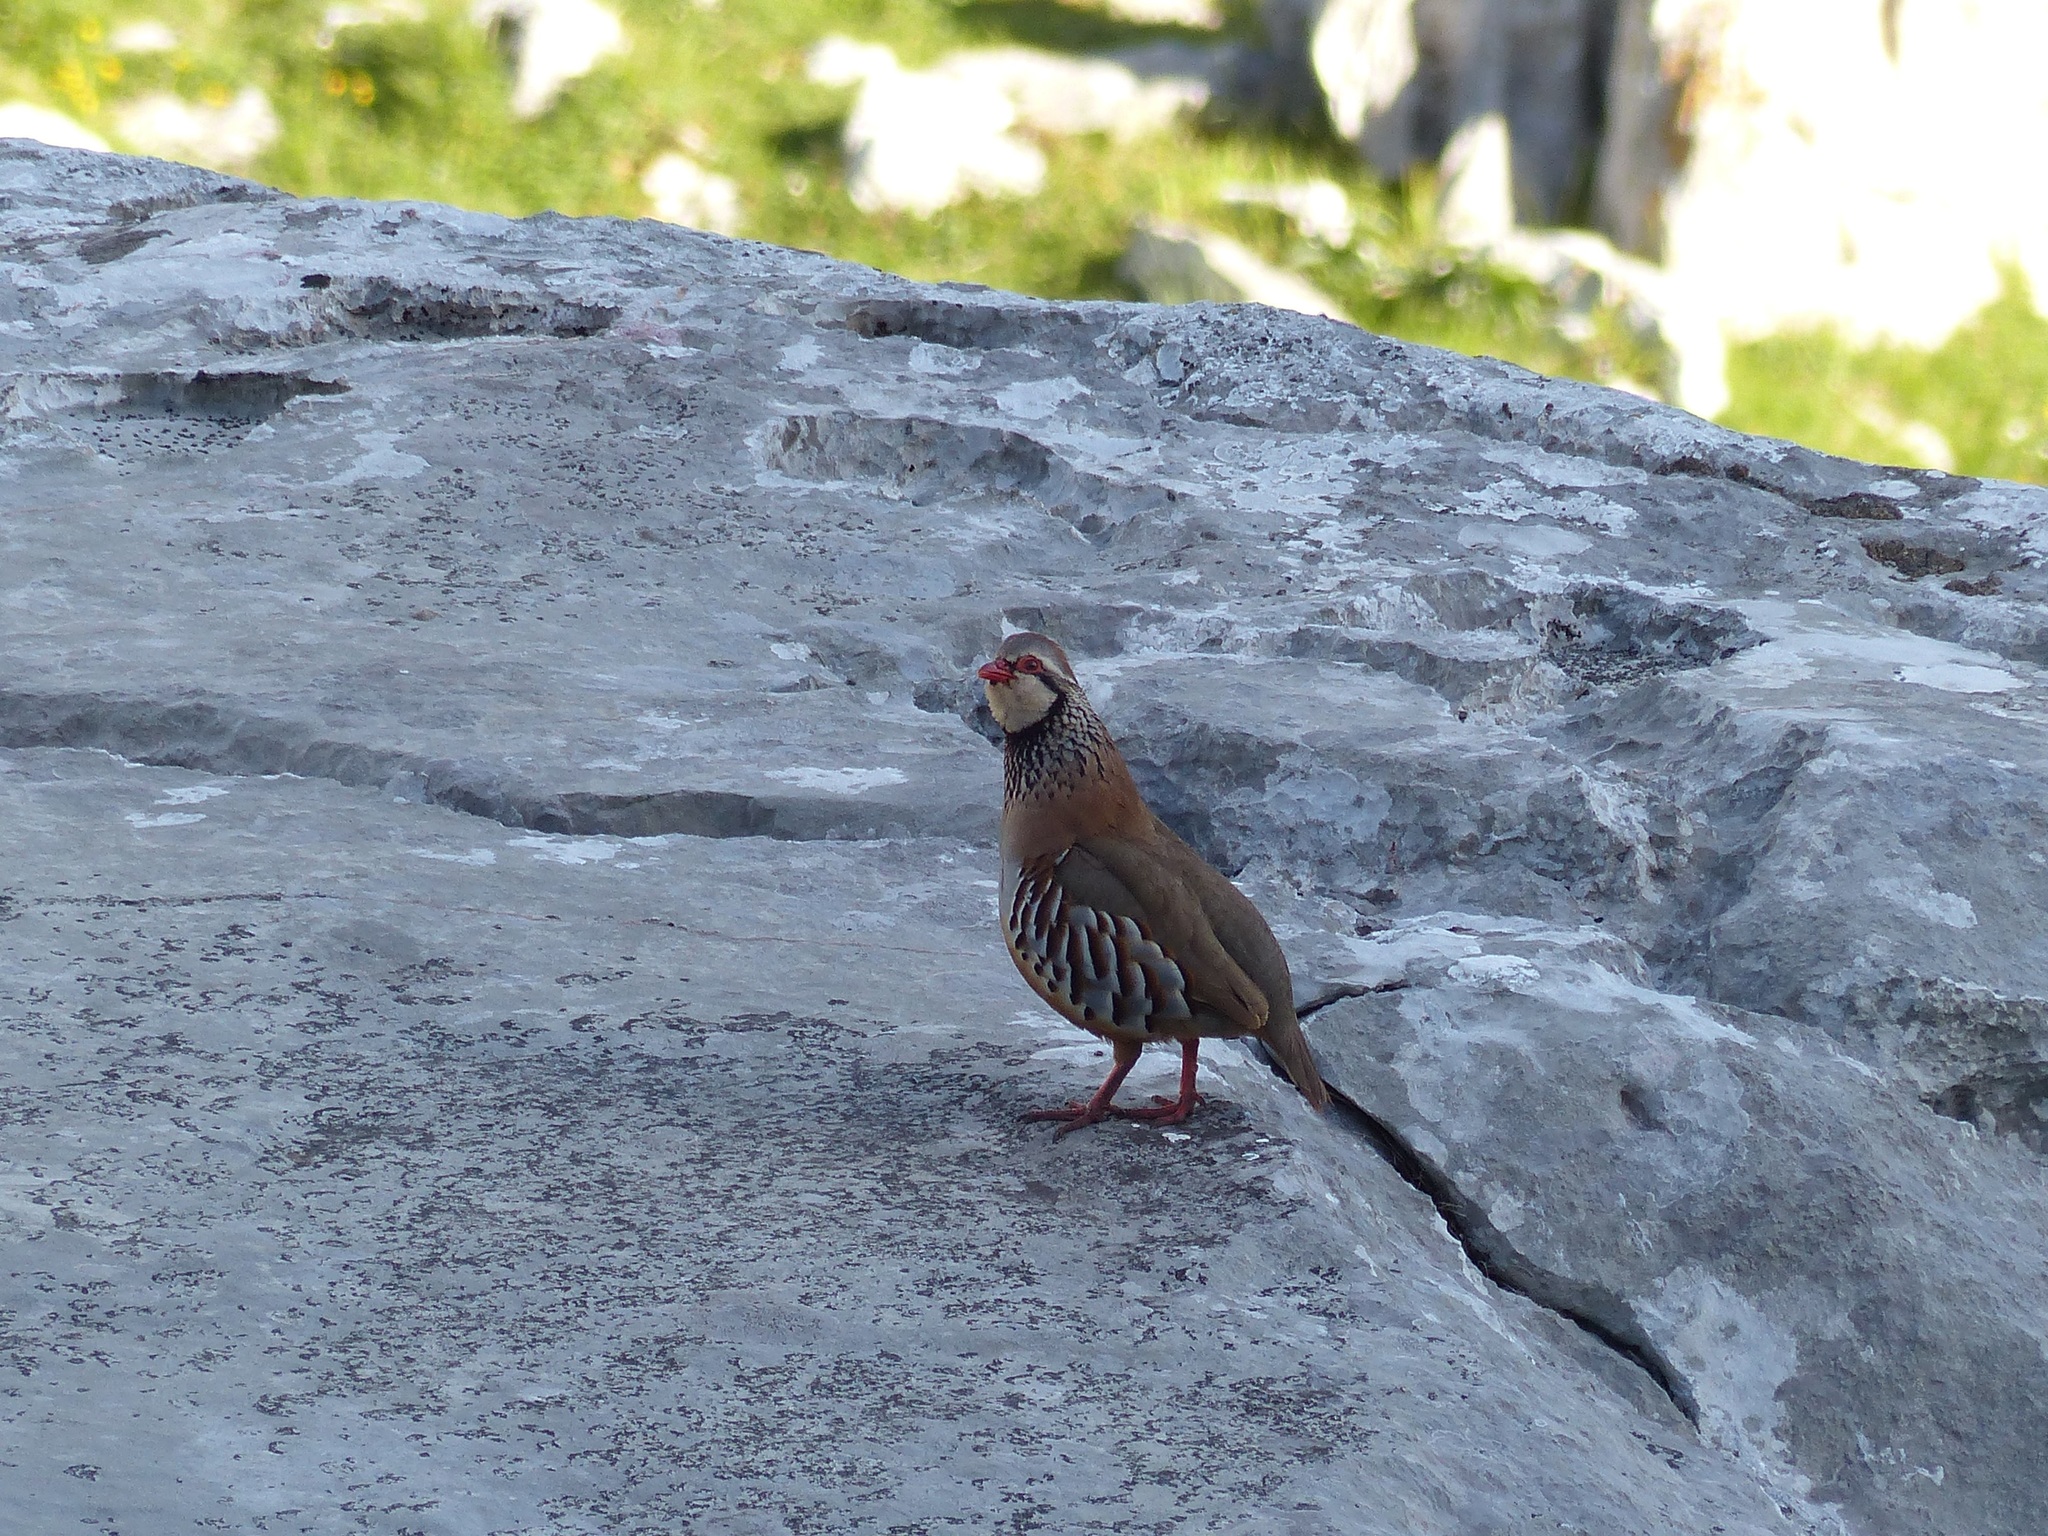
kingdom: Animalia
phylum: Chordata
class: Aves
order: Galliformes
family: Phasianidae
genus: Alectoris
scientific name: Alectoris rufa
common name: Red-legged partridge
